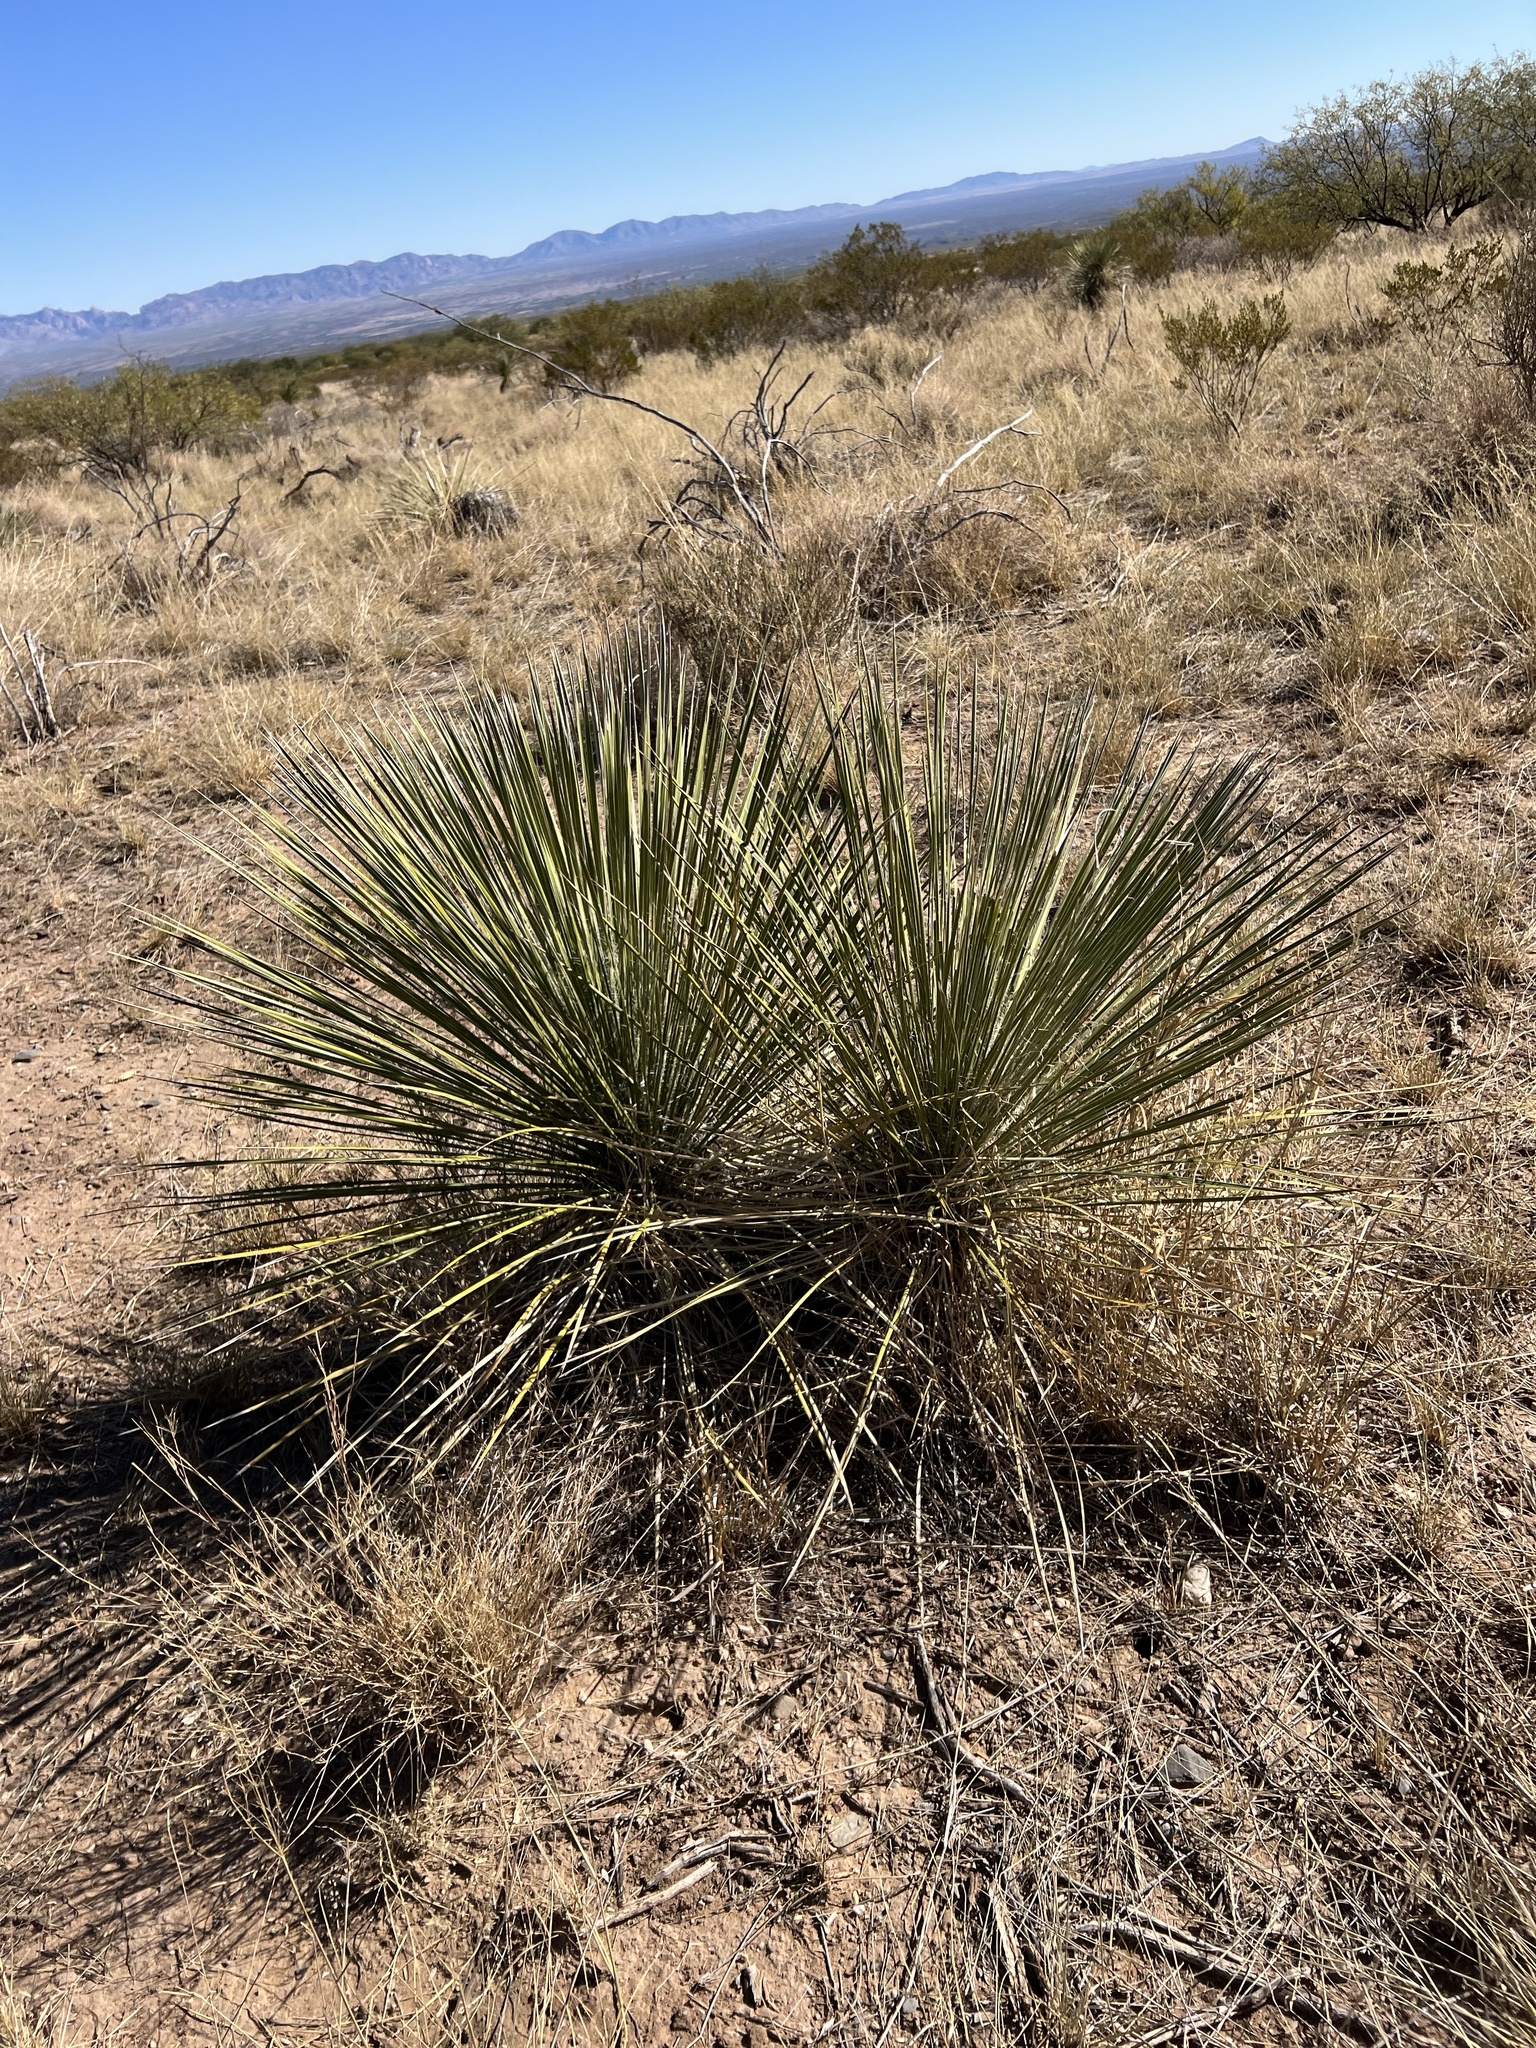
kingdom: Plantae
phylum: Tracheophyta
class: Liliopsida
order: Asparagales
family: Asparagaceae
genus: Yucca
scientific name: Yucca elata
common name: Palmella
